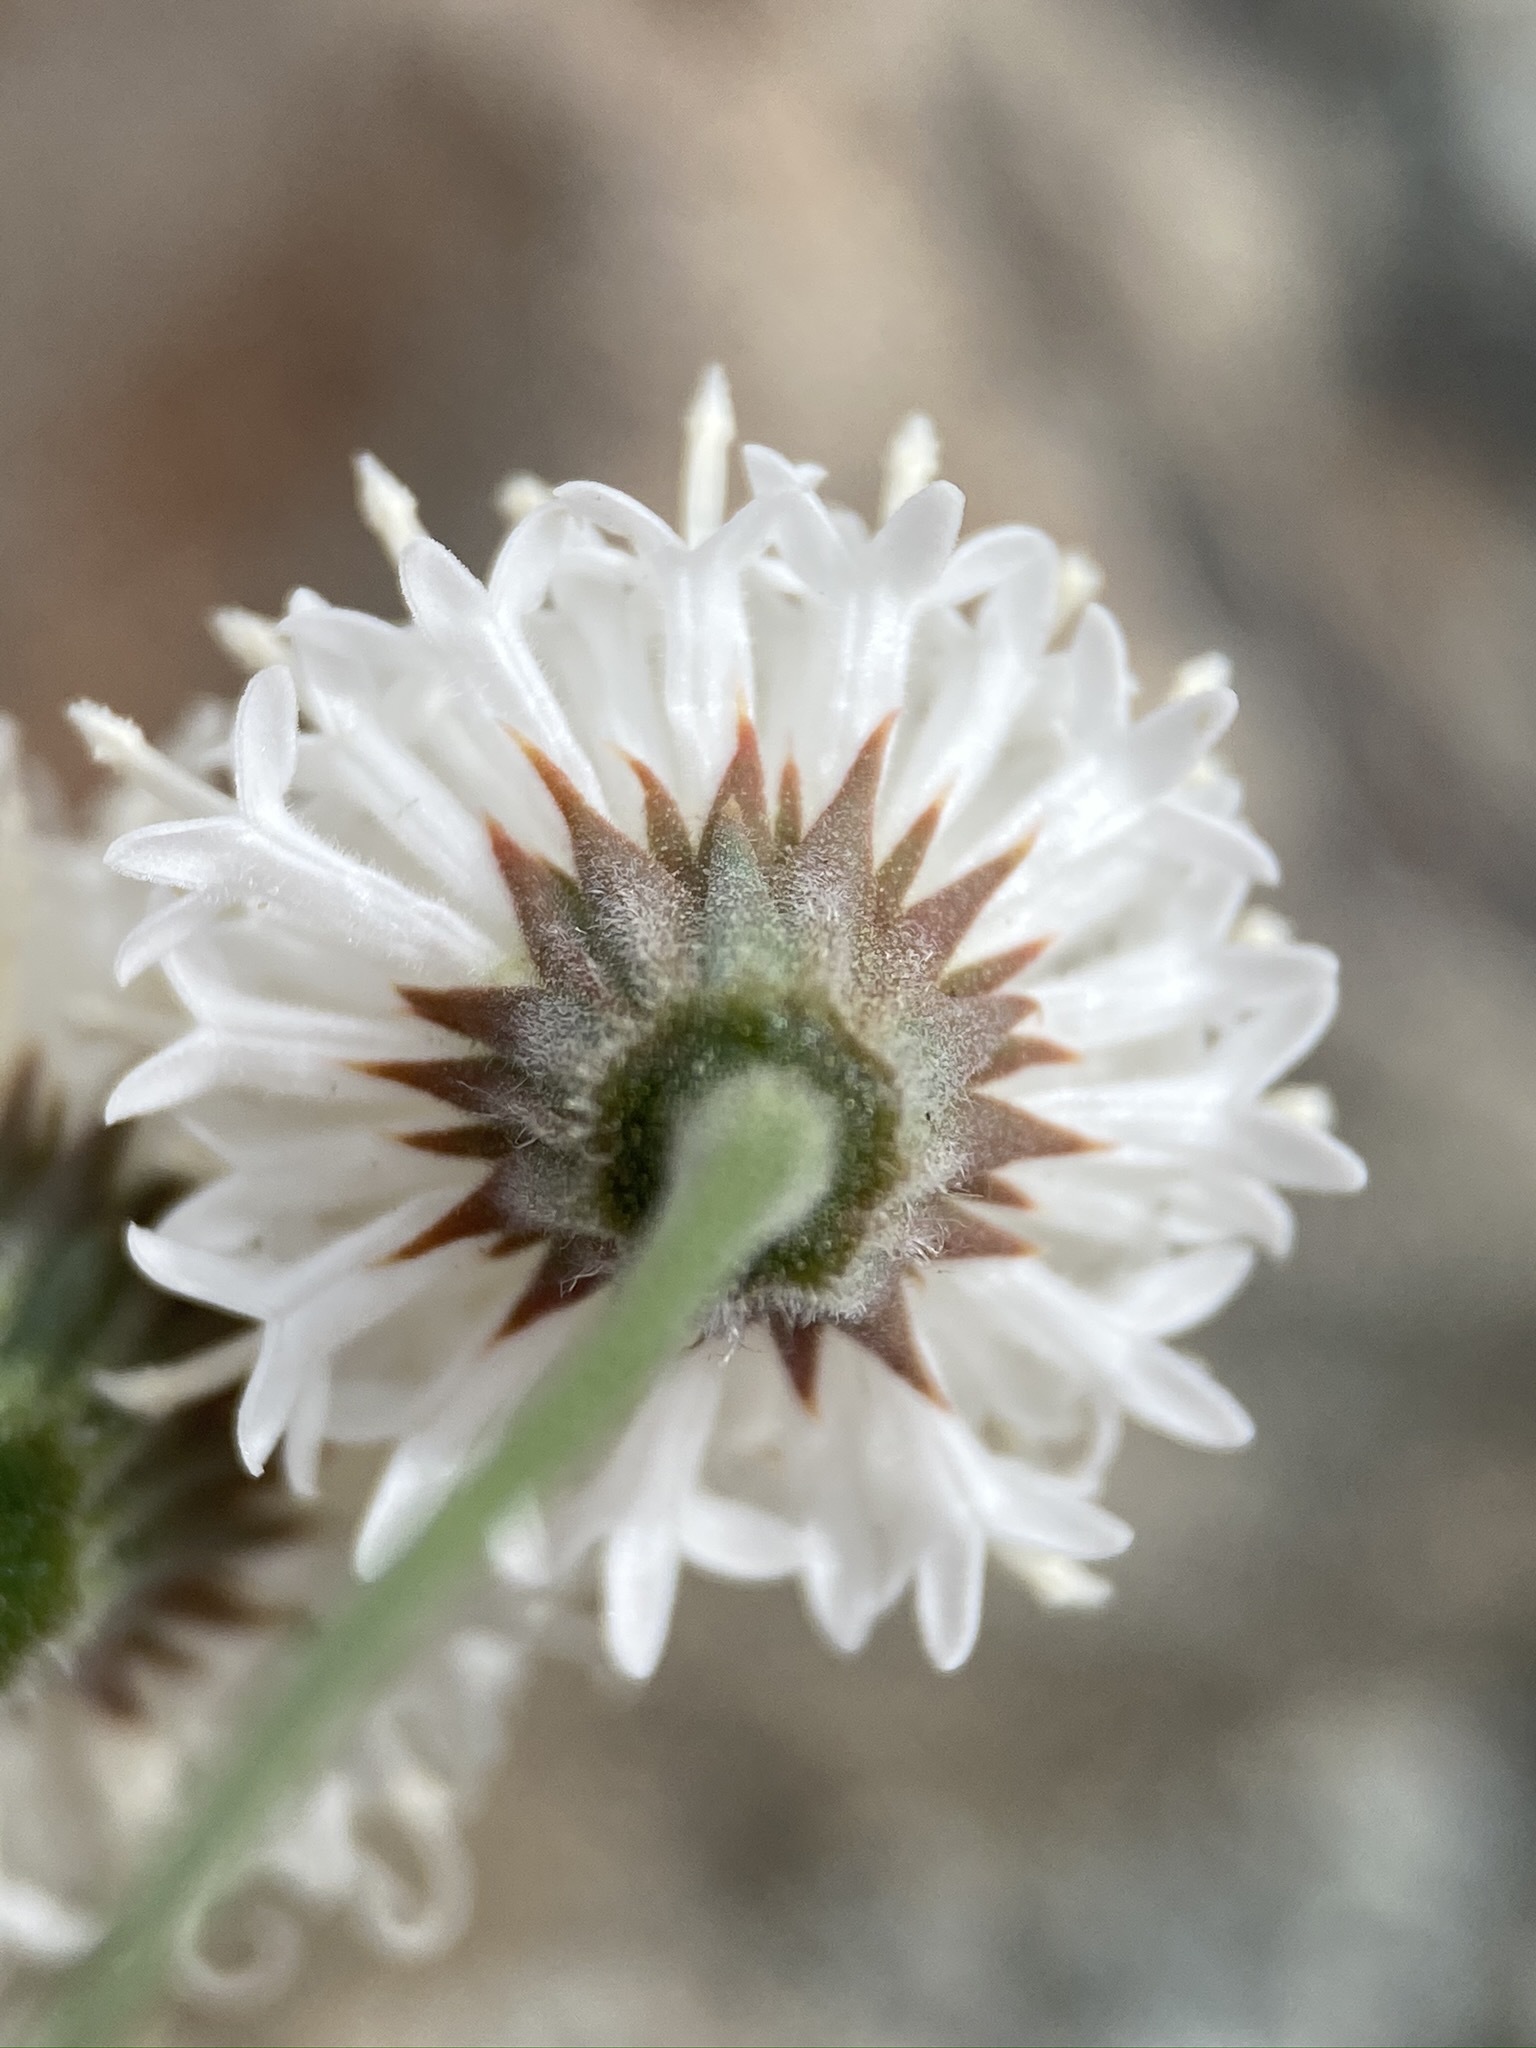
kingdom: Plantae
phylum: Tracheophyta
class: Magnoliopsida
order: Asterales
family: Asteraceae
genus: Chaenactis
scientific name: Chaenactis carphoclinia
